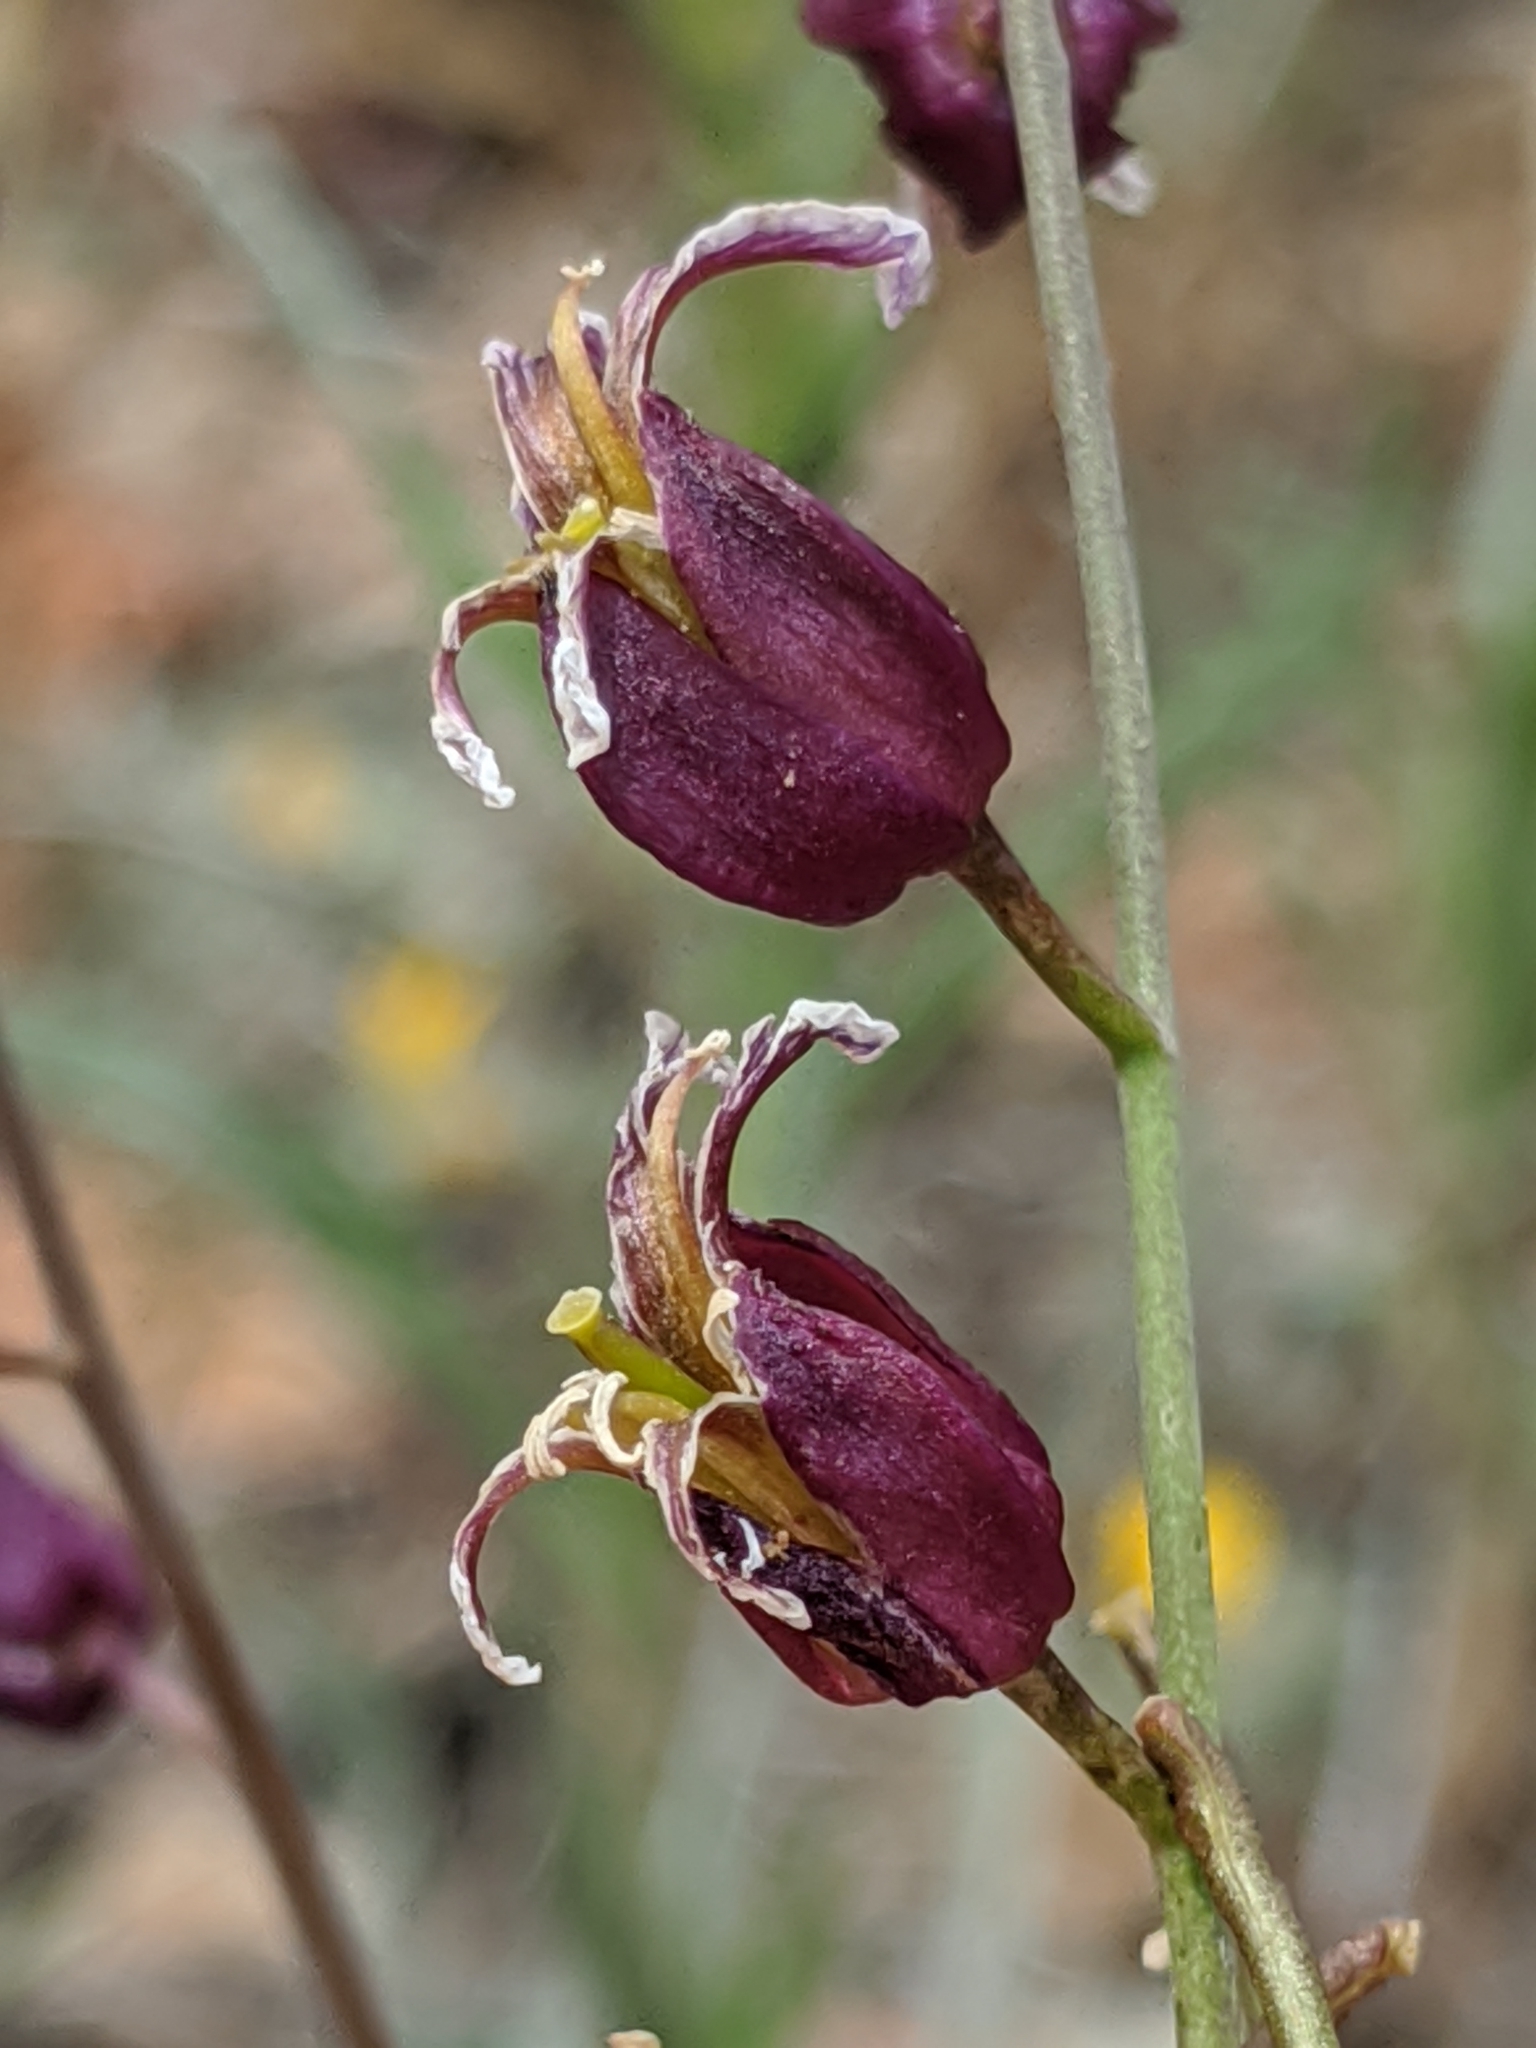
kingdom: Plantae
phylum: Tracheophyta
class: Magnoliopsida
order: Brassicales
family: Brassicaceae
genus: Streptanthus
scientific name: Streptanthus glandulosus
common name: Jewel-flower
